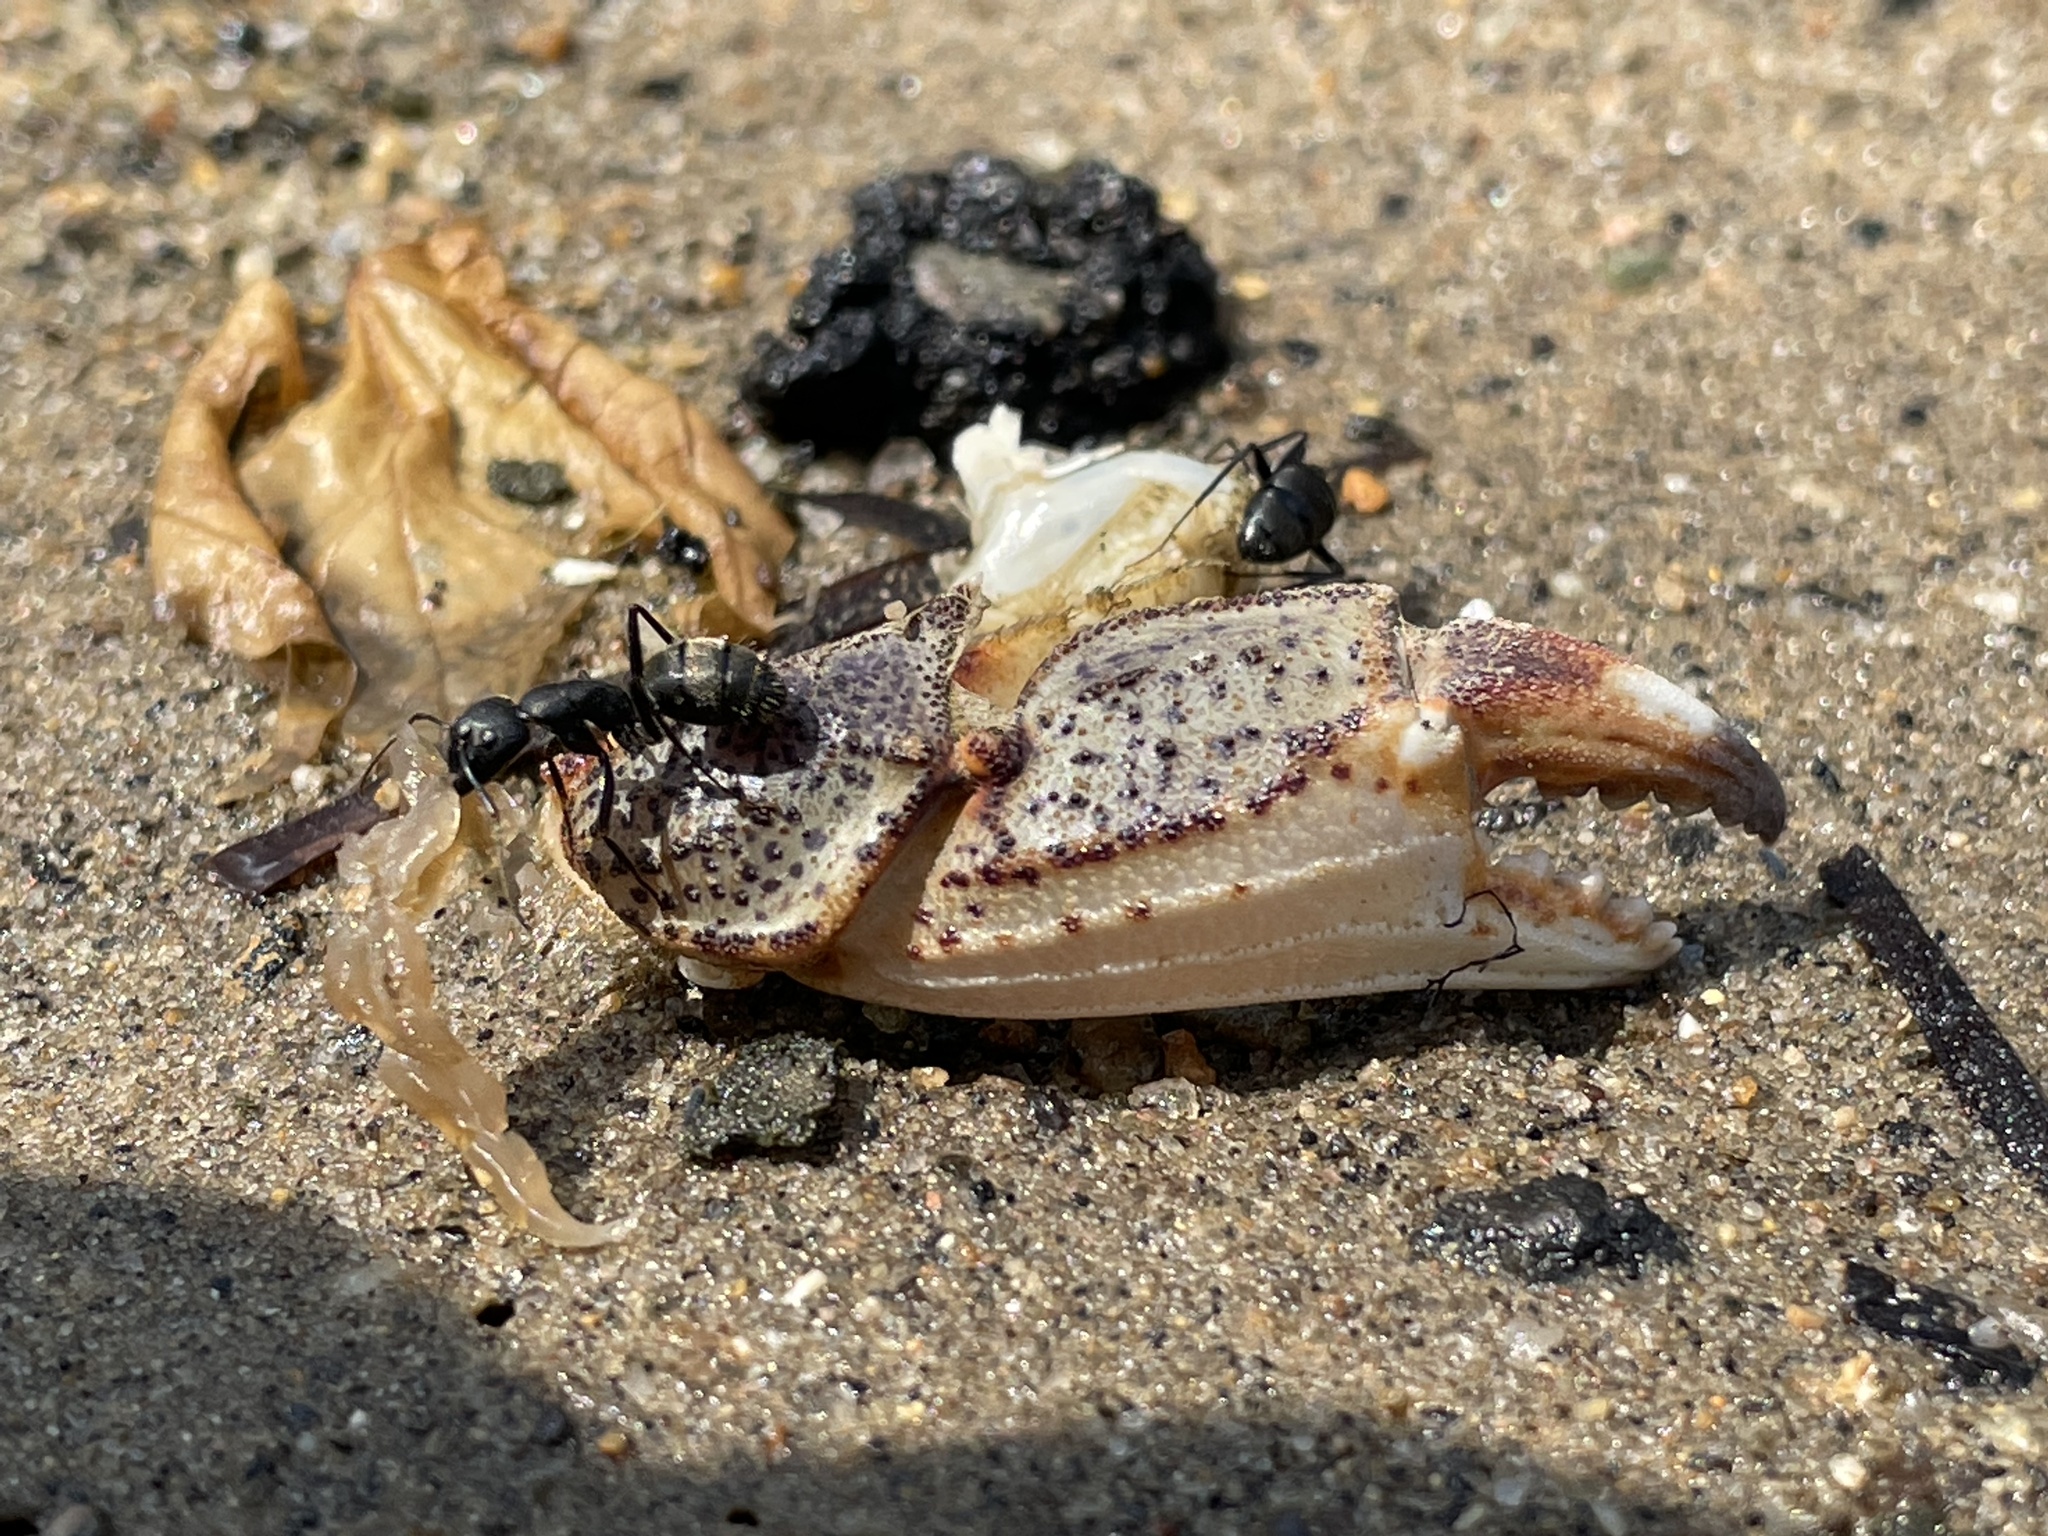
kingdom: Animalia
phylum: Arthropoda
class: Malacostraca
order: Decapoda
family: Ovalipidae
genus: Ovalipes
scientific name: Ovalipes ocellatus
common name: Lady crab
